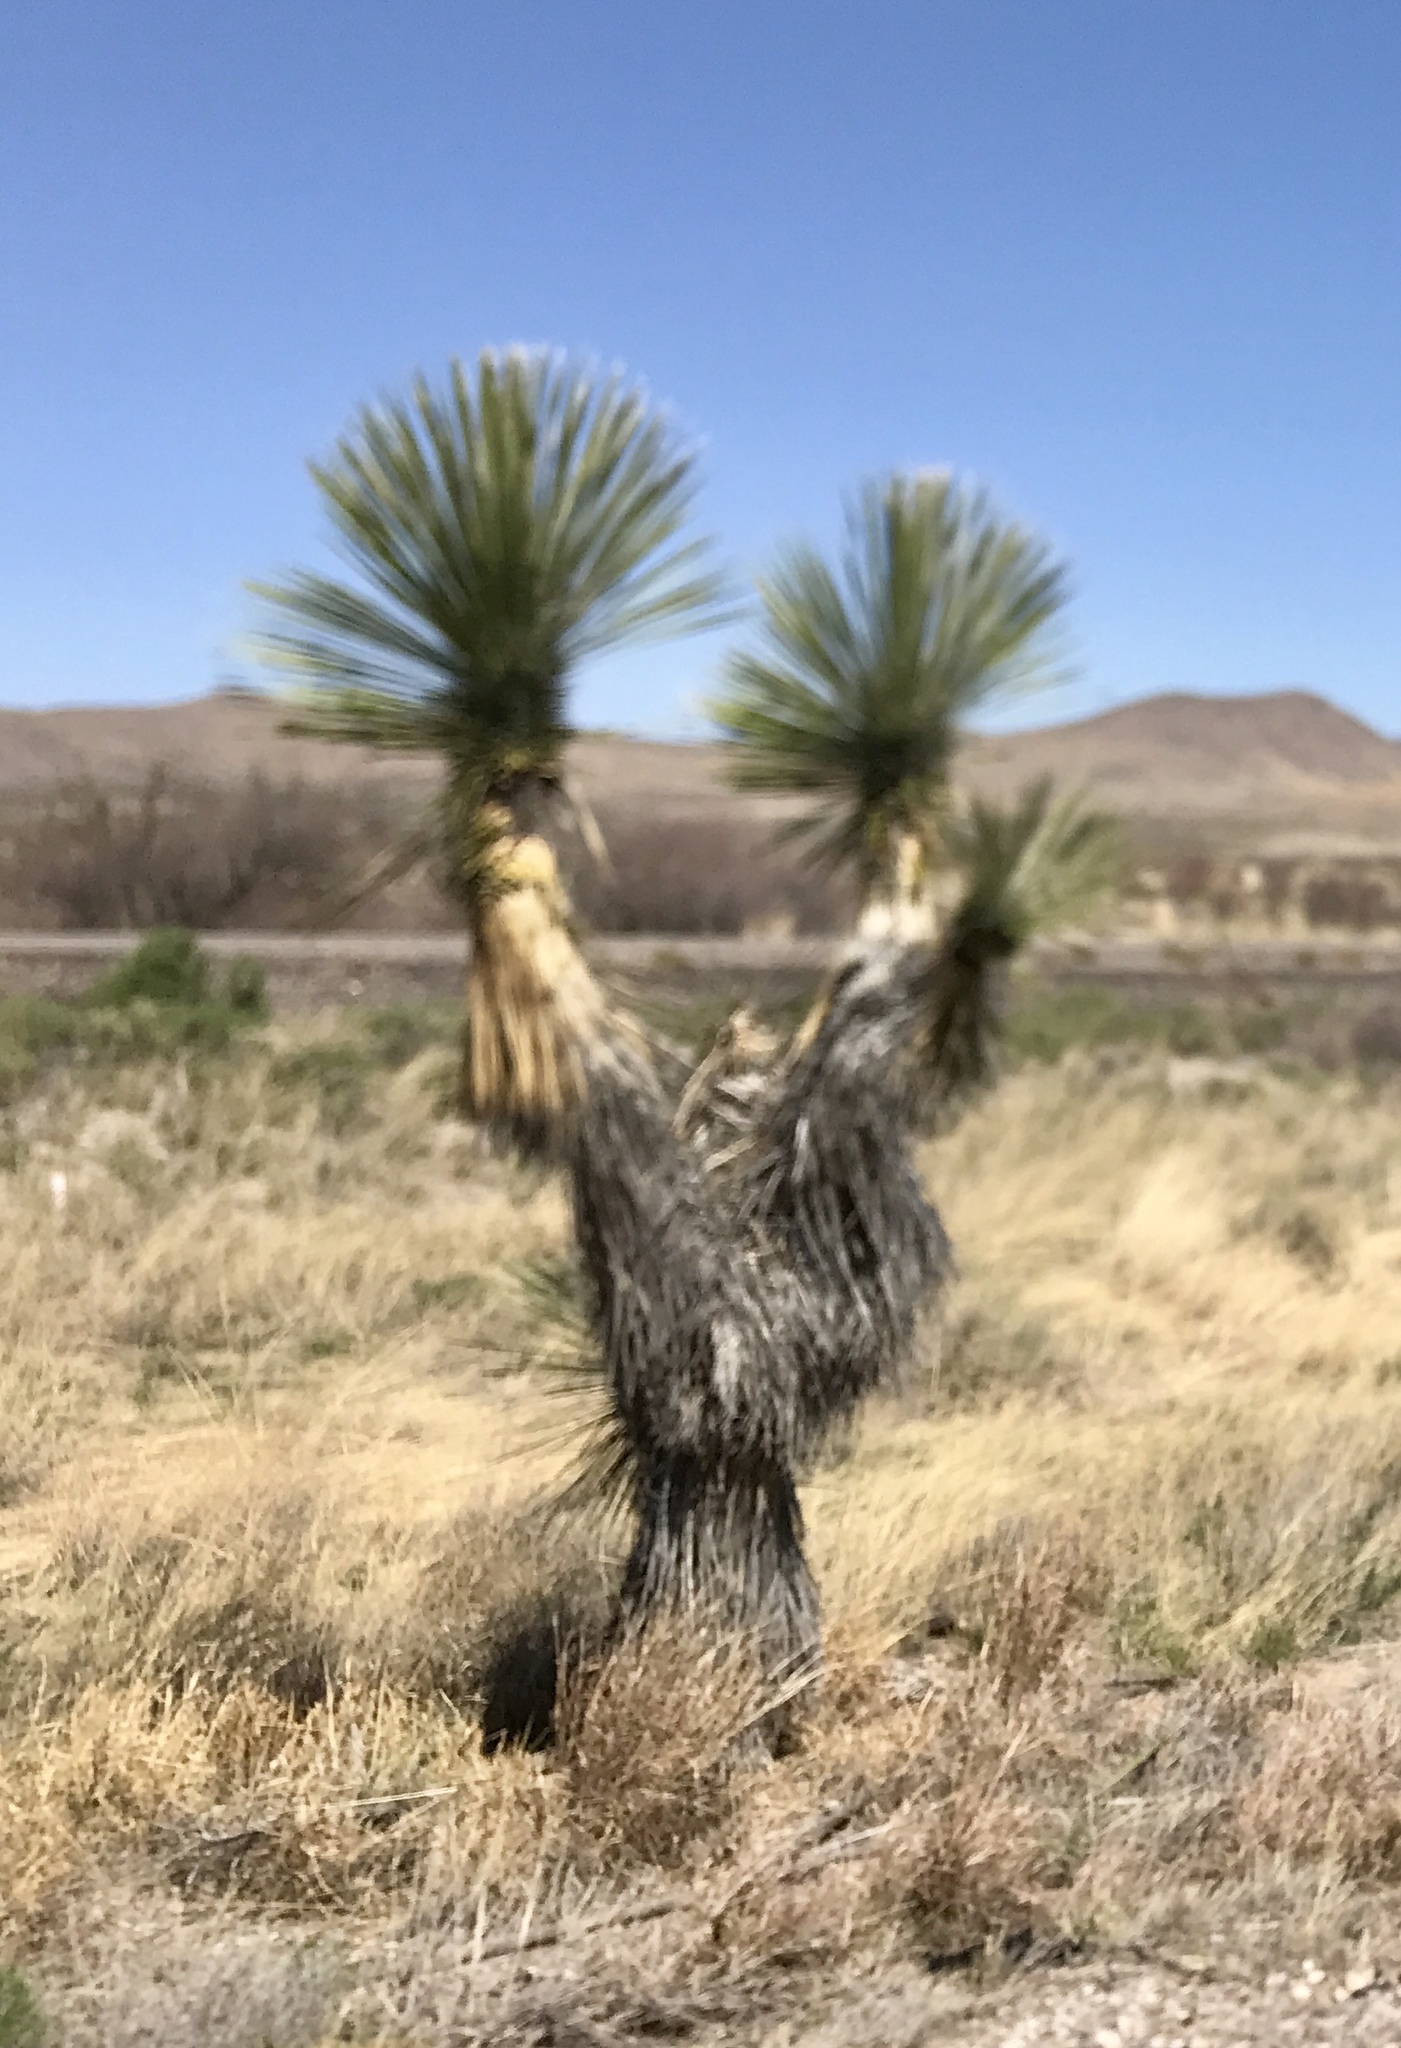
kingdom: Plantae
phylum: Tracheophyta
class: Liliopsida
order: Asparagales
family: Asparagaceae
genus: Yucca
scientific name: Yucca elata
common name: Palmella
